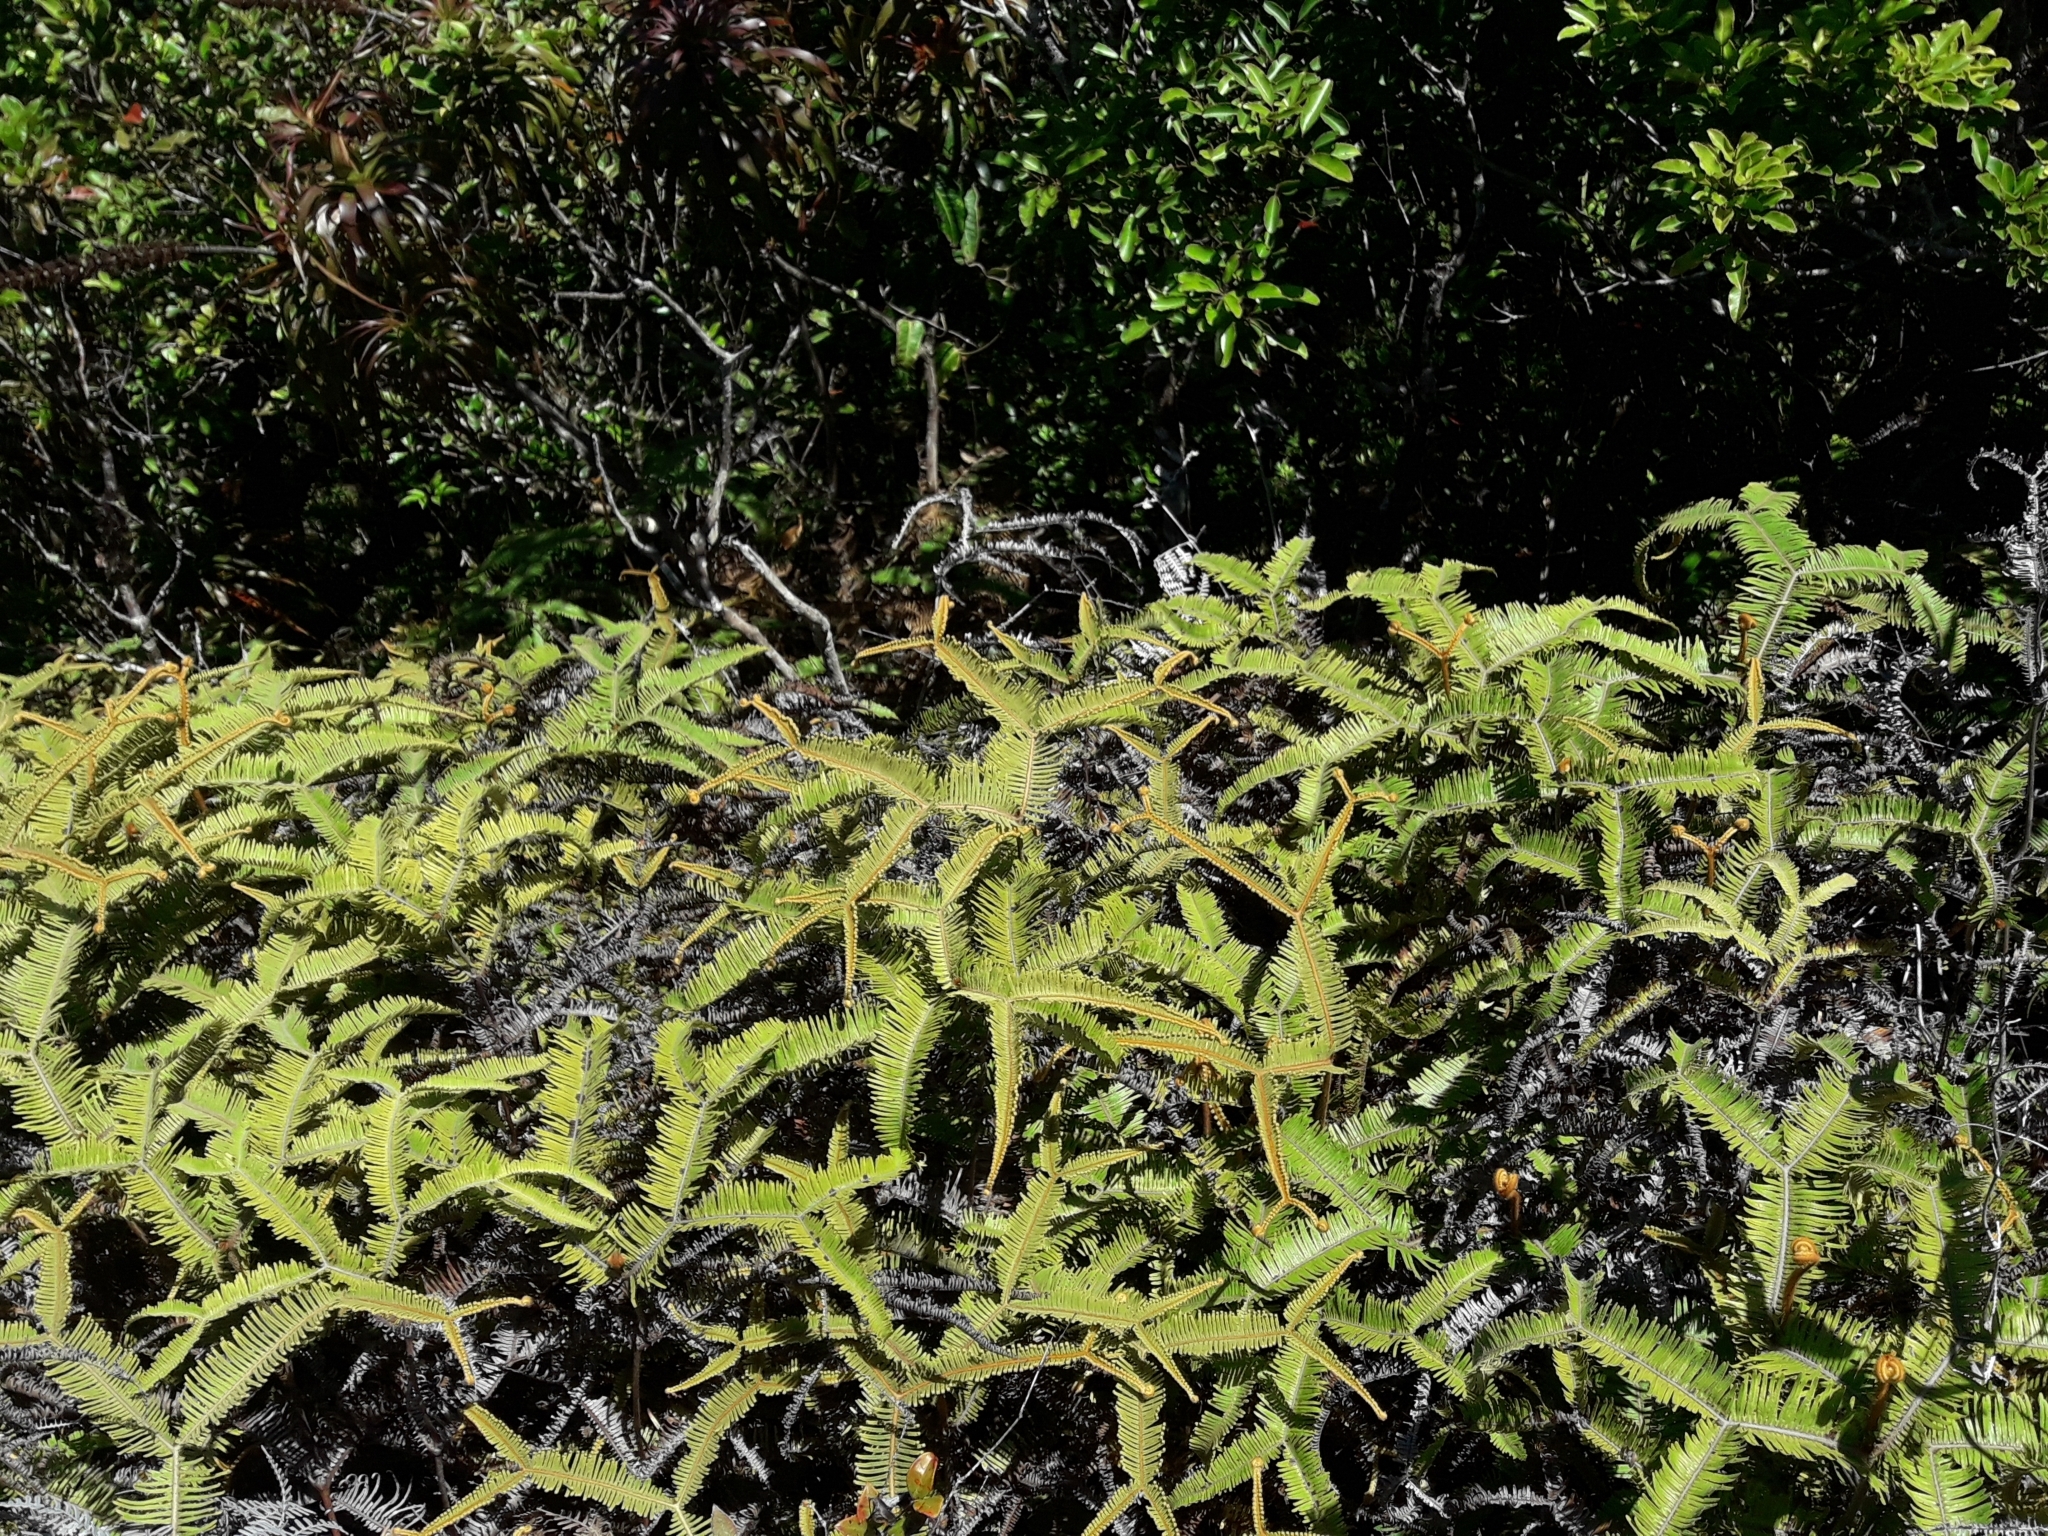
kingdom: Plantae
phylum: Tracheophyta
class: Polypodiopsida
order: Gleicheniales
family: Gleicheniaceae
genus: Sticherus
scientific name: Sticherus brackenridgei
